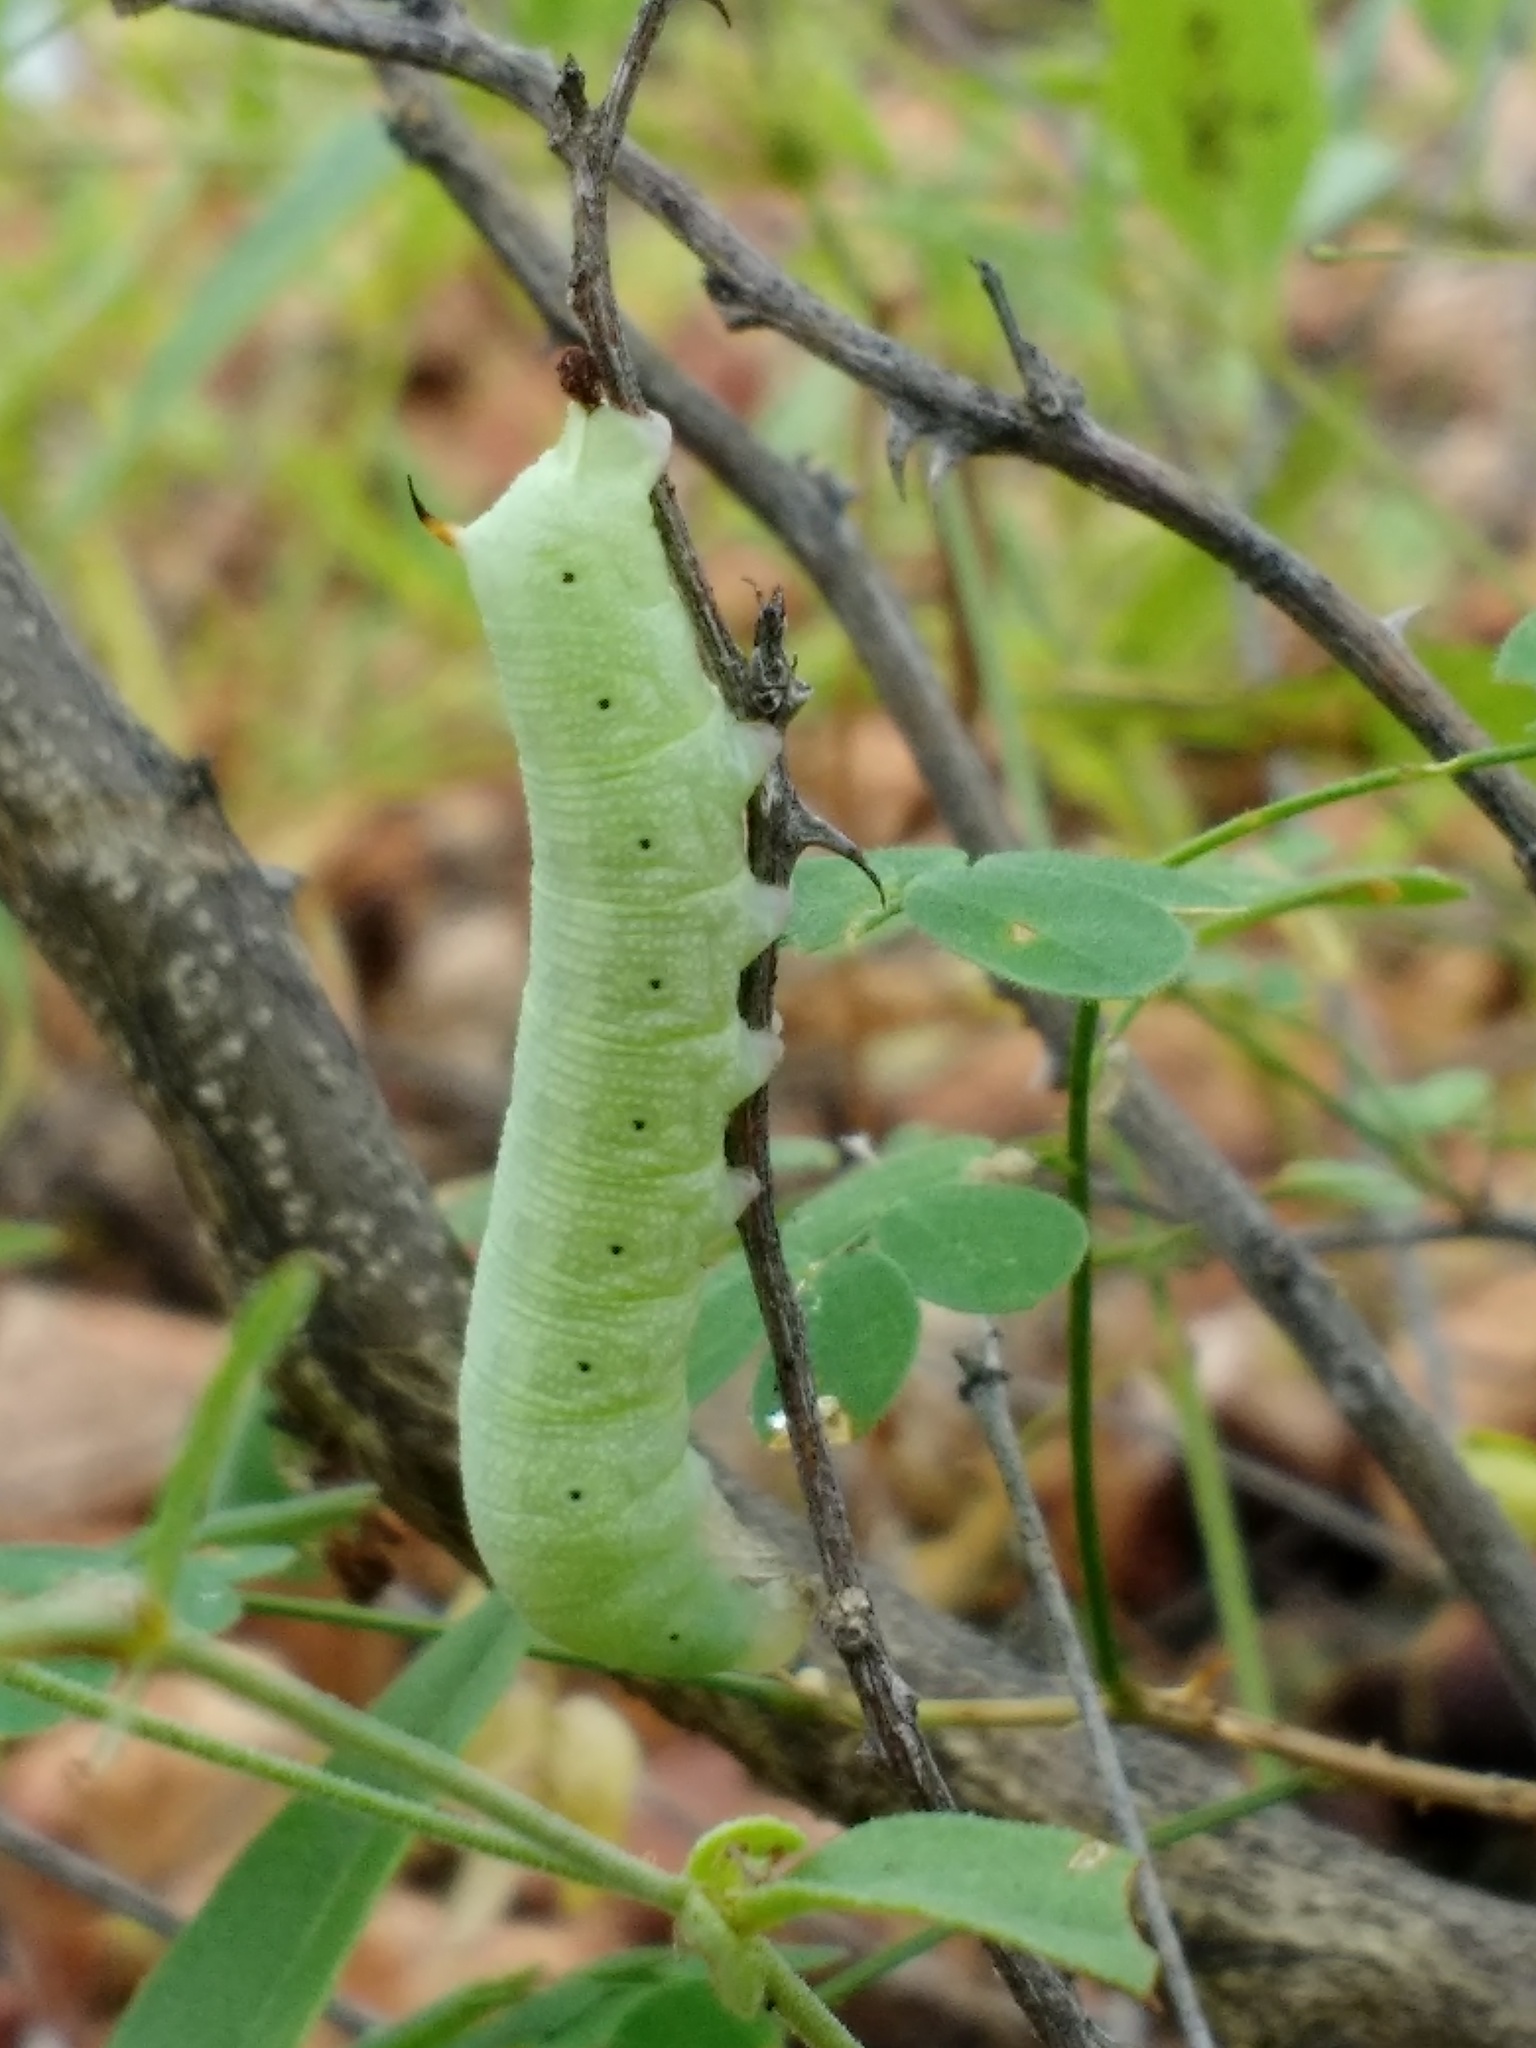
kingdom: Animalia
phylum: Arthropoda
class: Insecta
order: Lepidoptera
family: Sphingidae
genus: Proserpinus
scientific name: Proserpinus terlooii
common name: Terloo's sphinx
